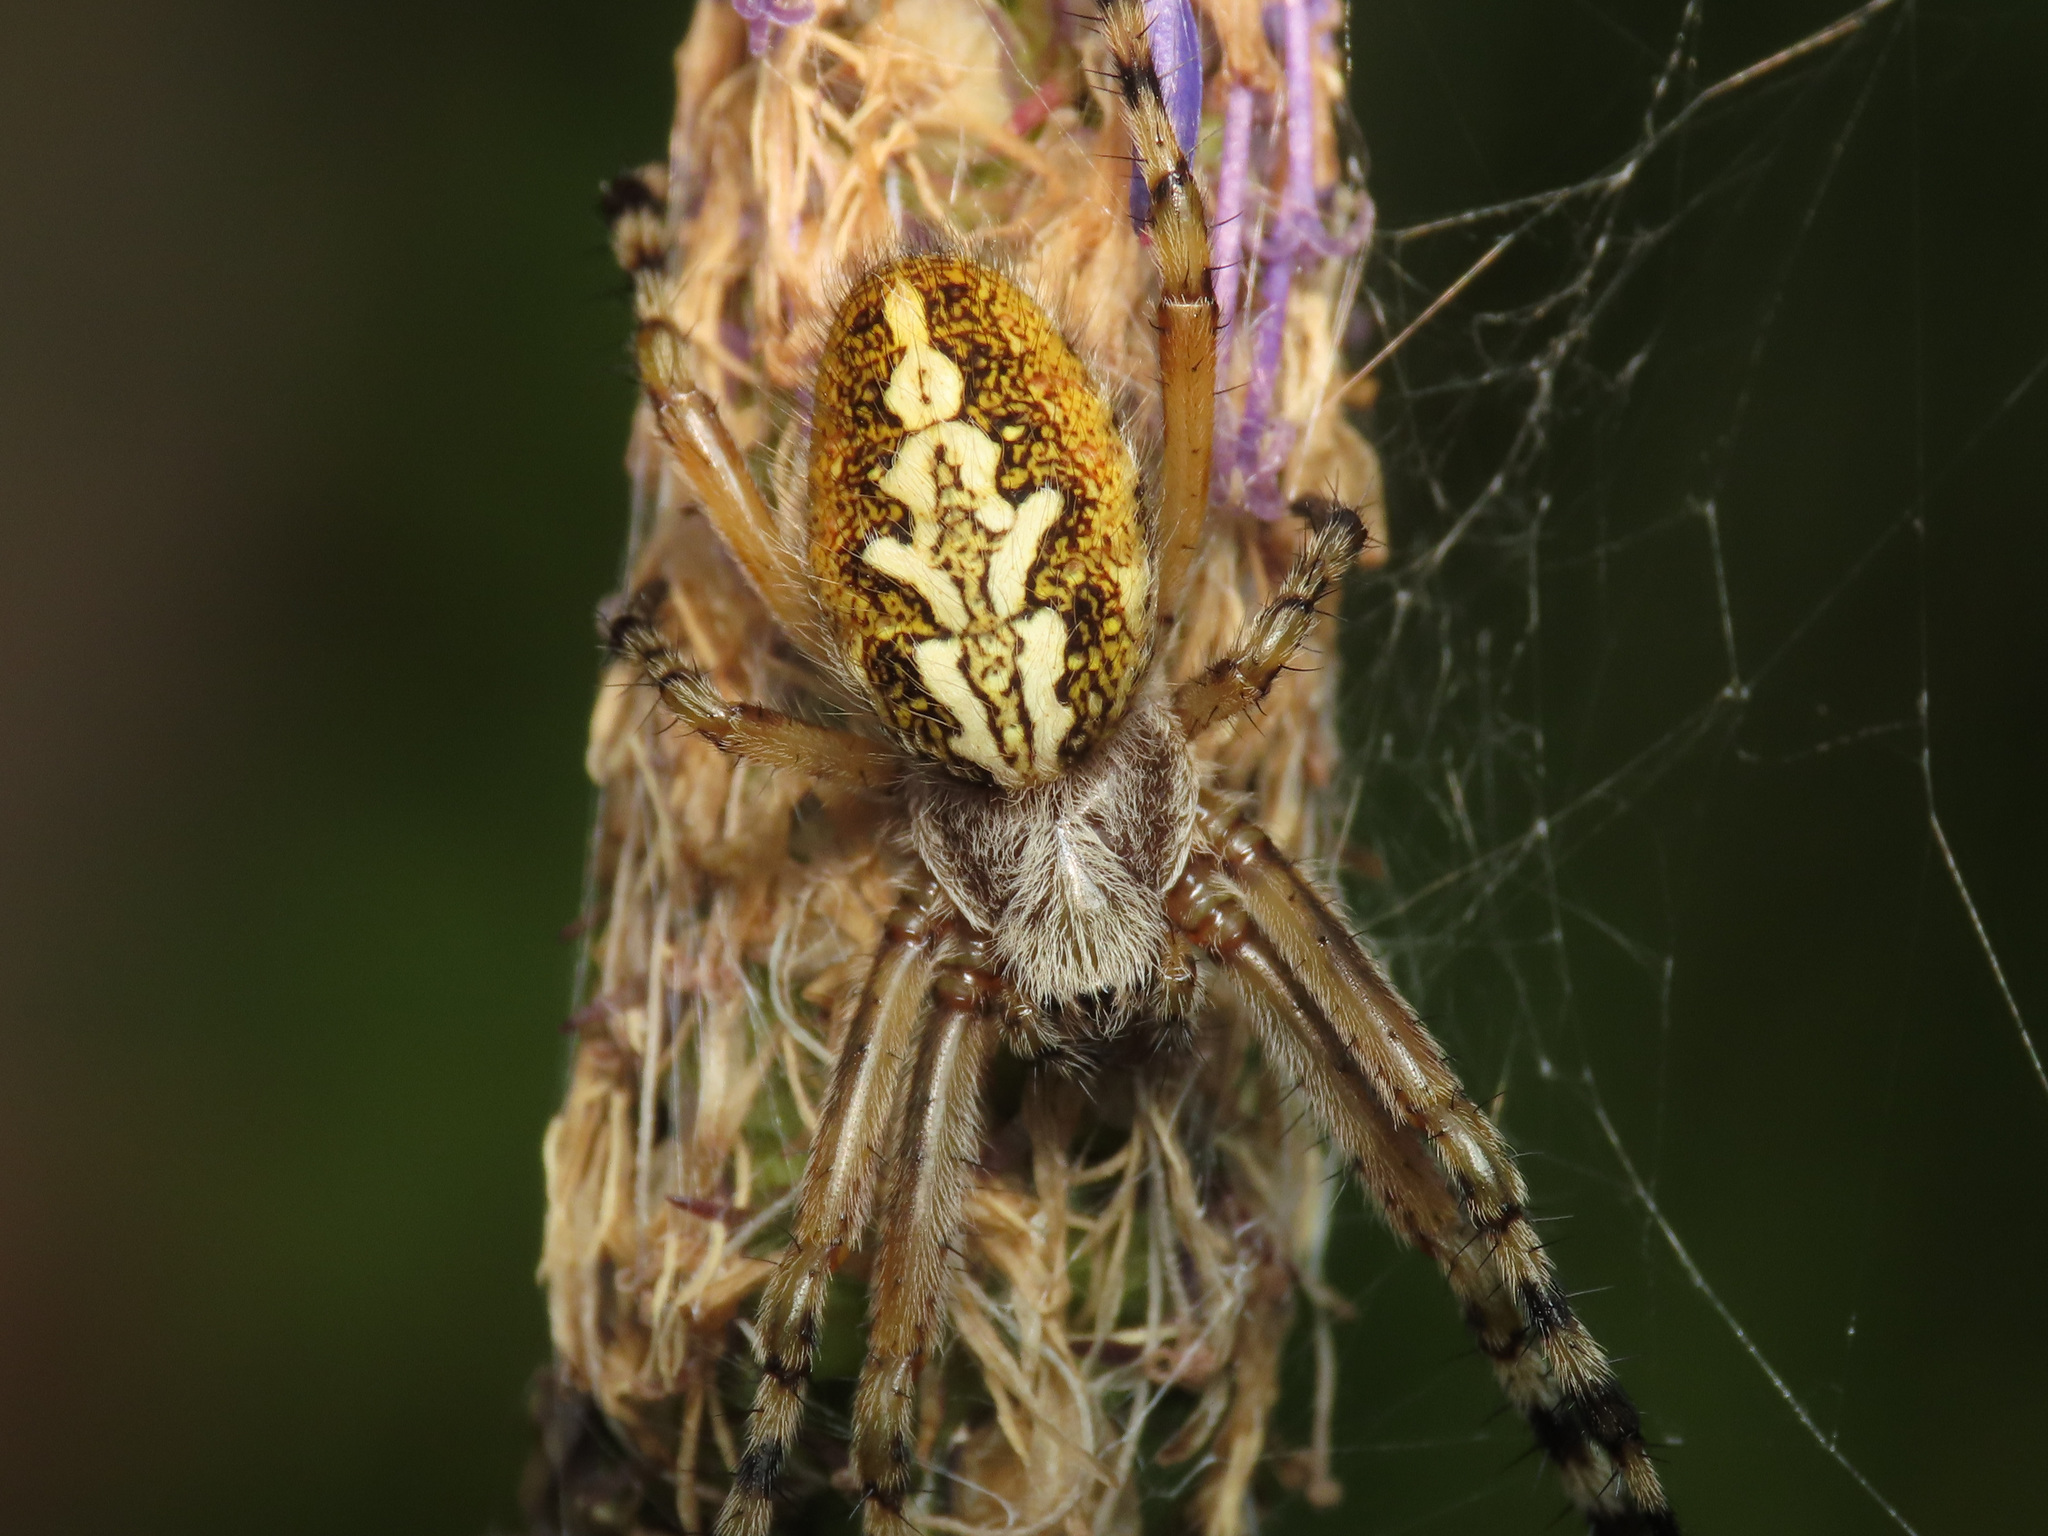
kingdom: Animalia
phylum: Arthropoda
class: Arachnida
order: Araneae
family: Araneidae
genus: Aculepeira
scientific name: Aculepeira ceropegia
